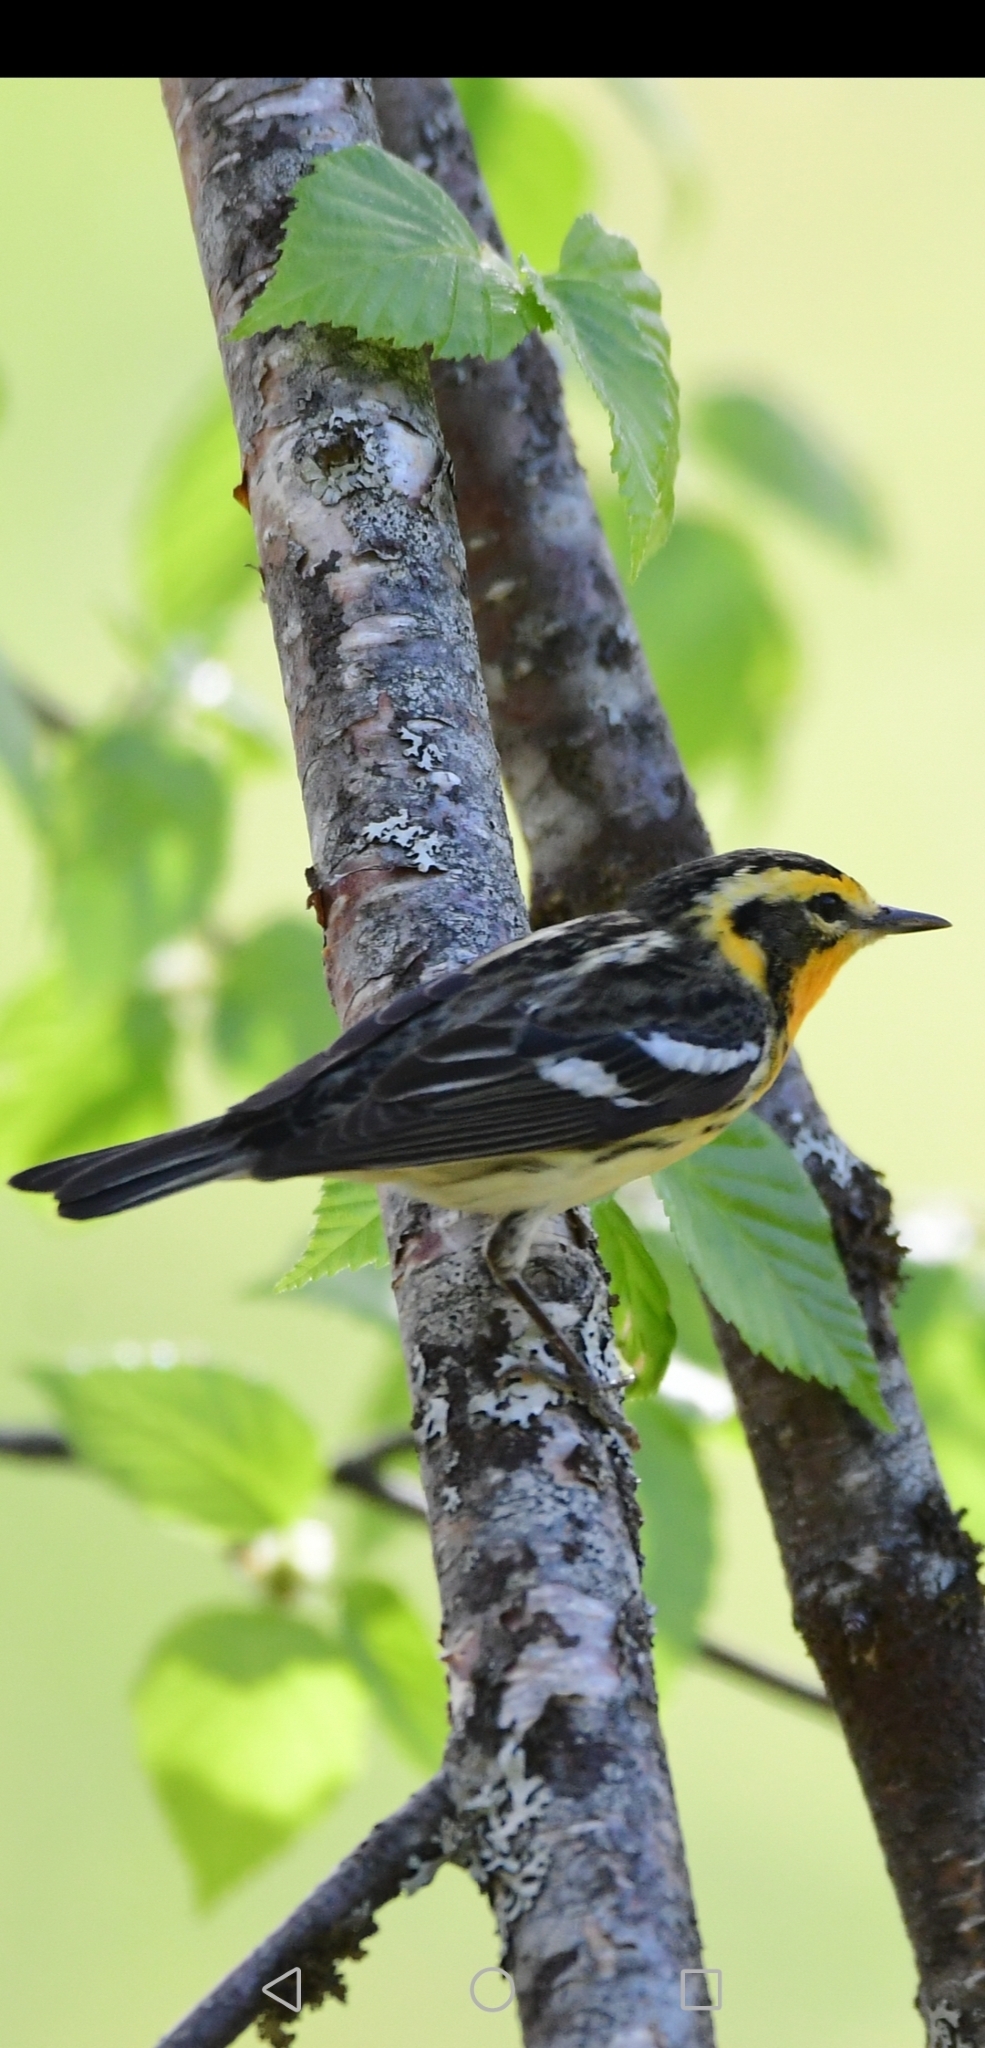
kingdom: Animalia
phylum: Chordata
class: Aves
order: Passeriformes
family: Parulidae
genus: Setophaga
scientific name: Setophaga fusca
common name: Blackburnian warbler
